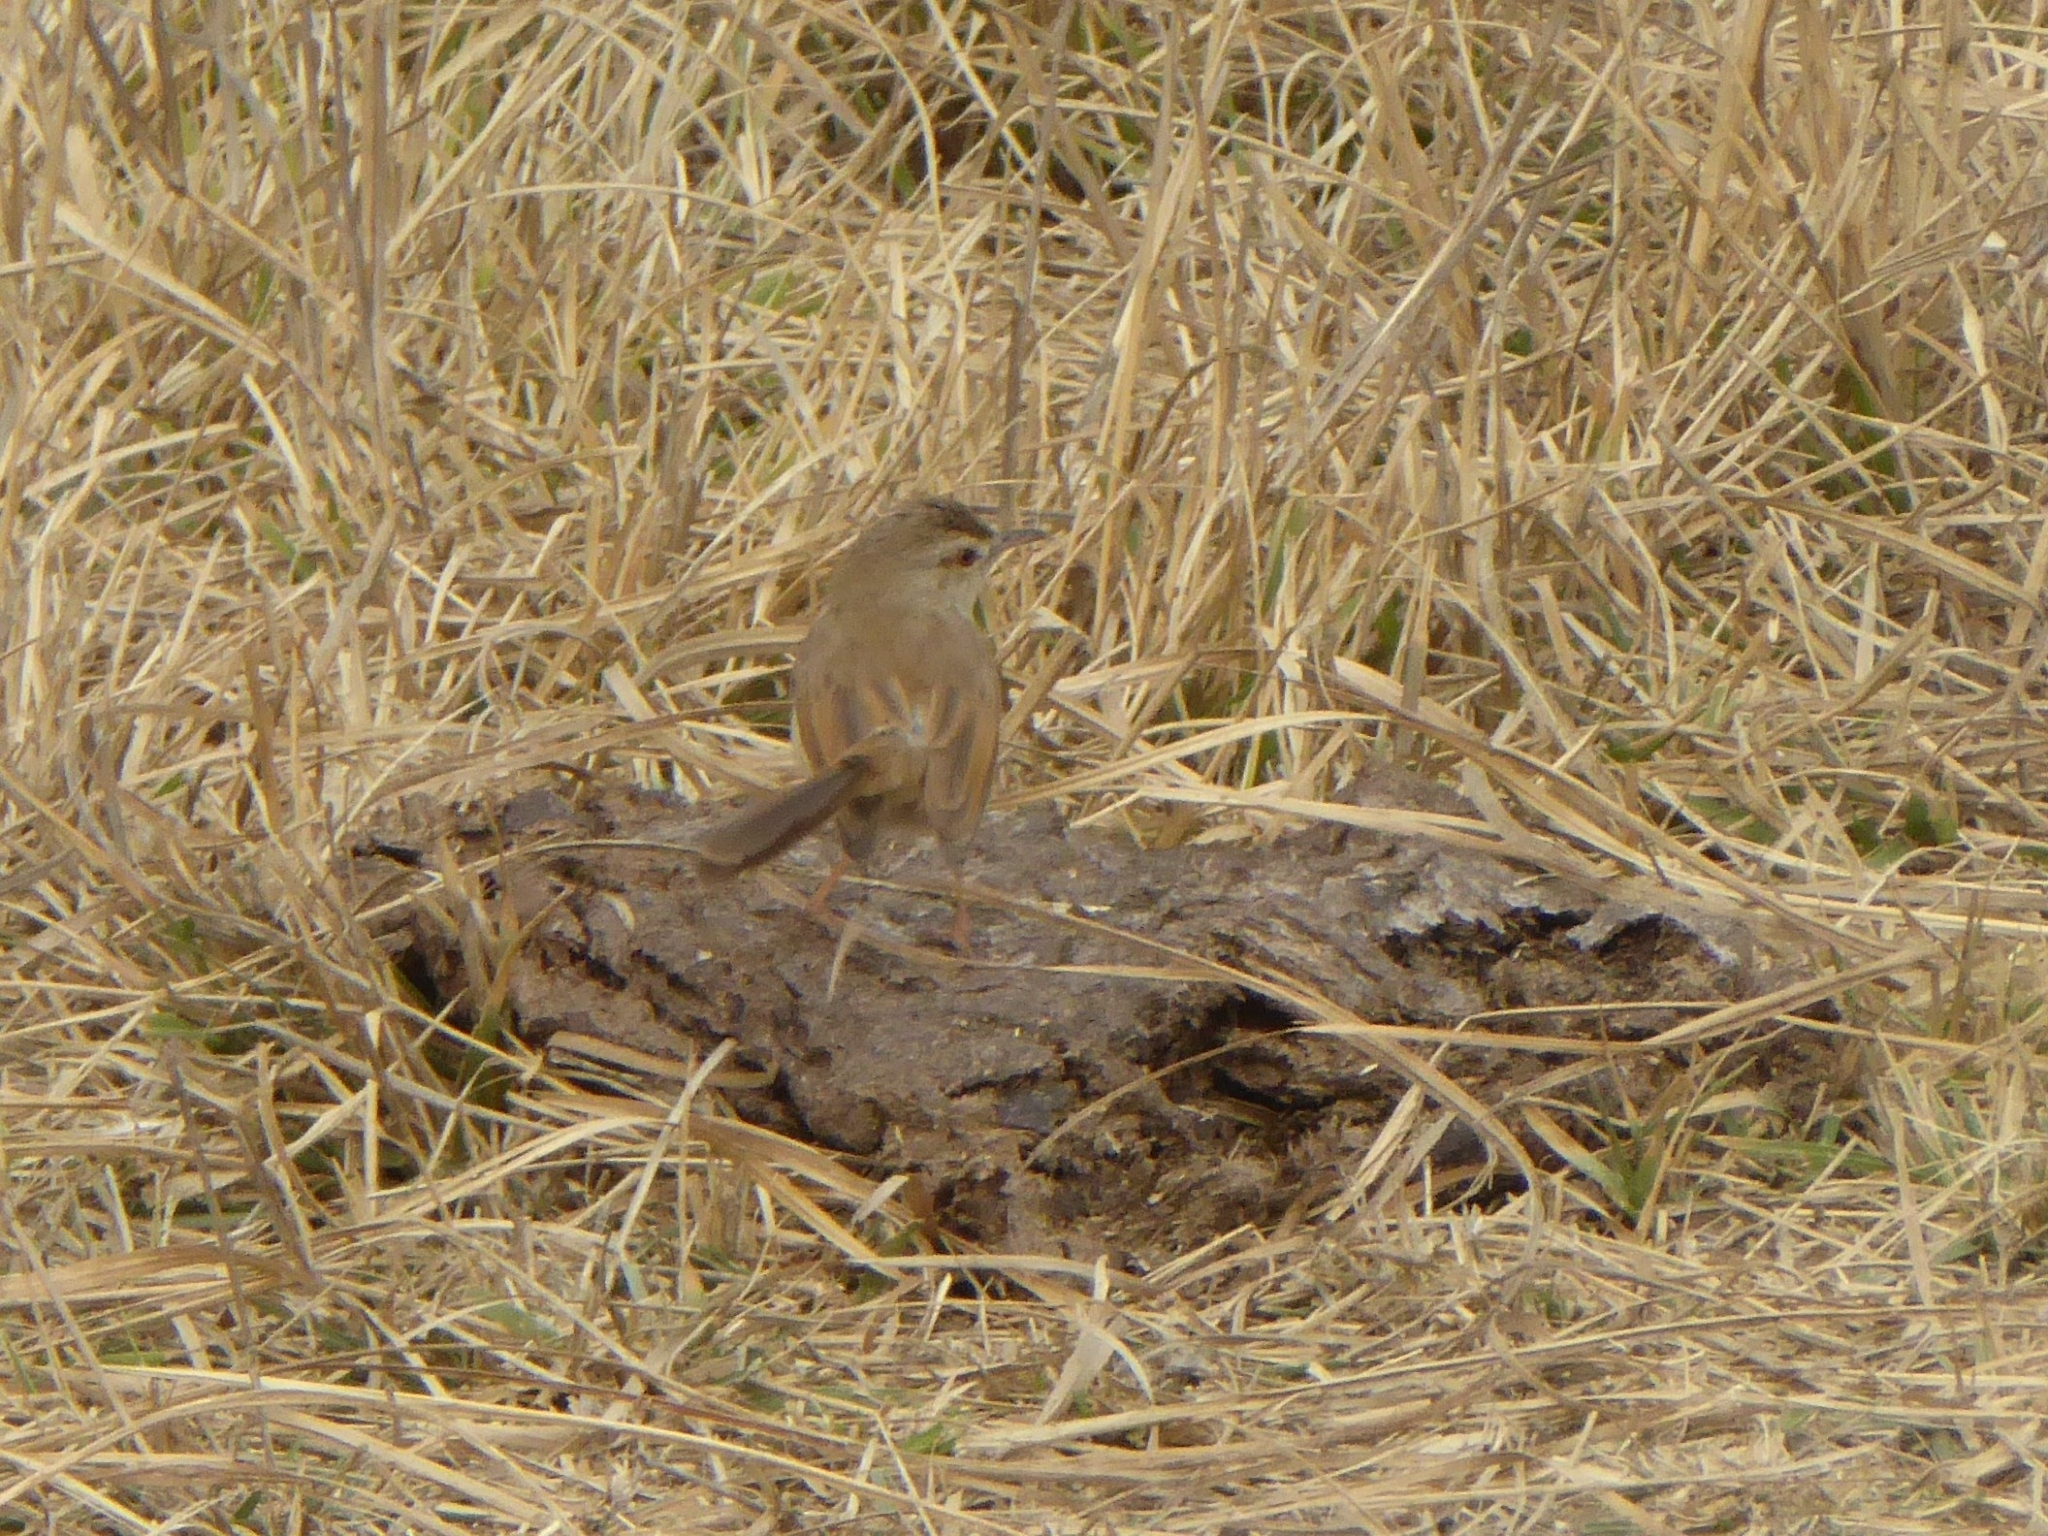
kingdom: Animalia
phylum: Chordata
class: Aves
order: Passeriformes
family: Cisticolidae
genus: Prinia
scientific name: Prinia inornata
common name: Plain prinia
